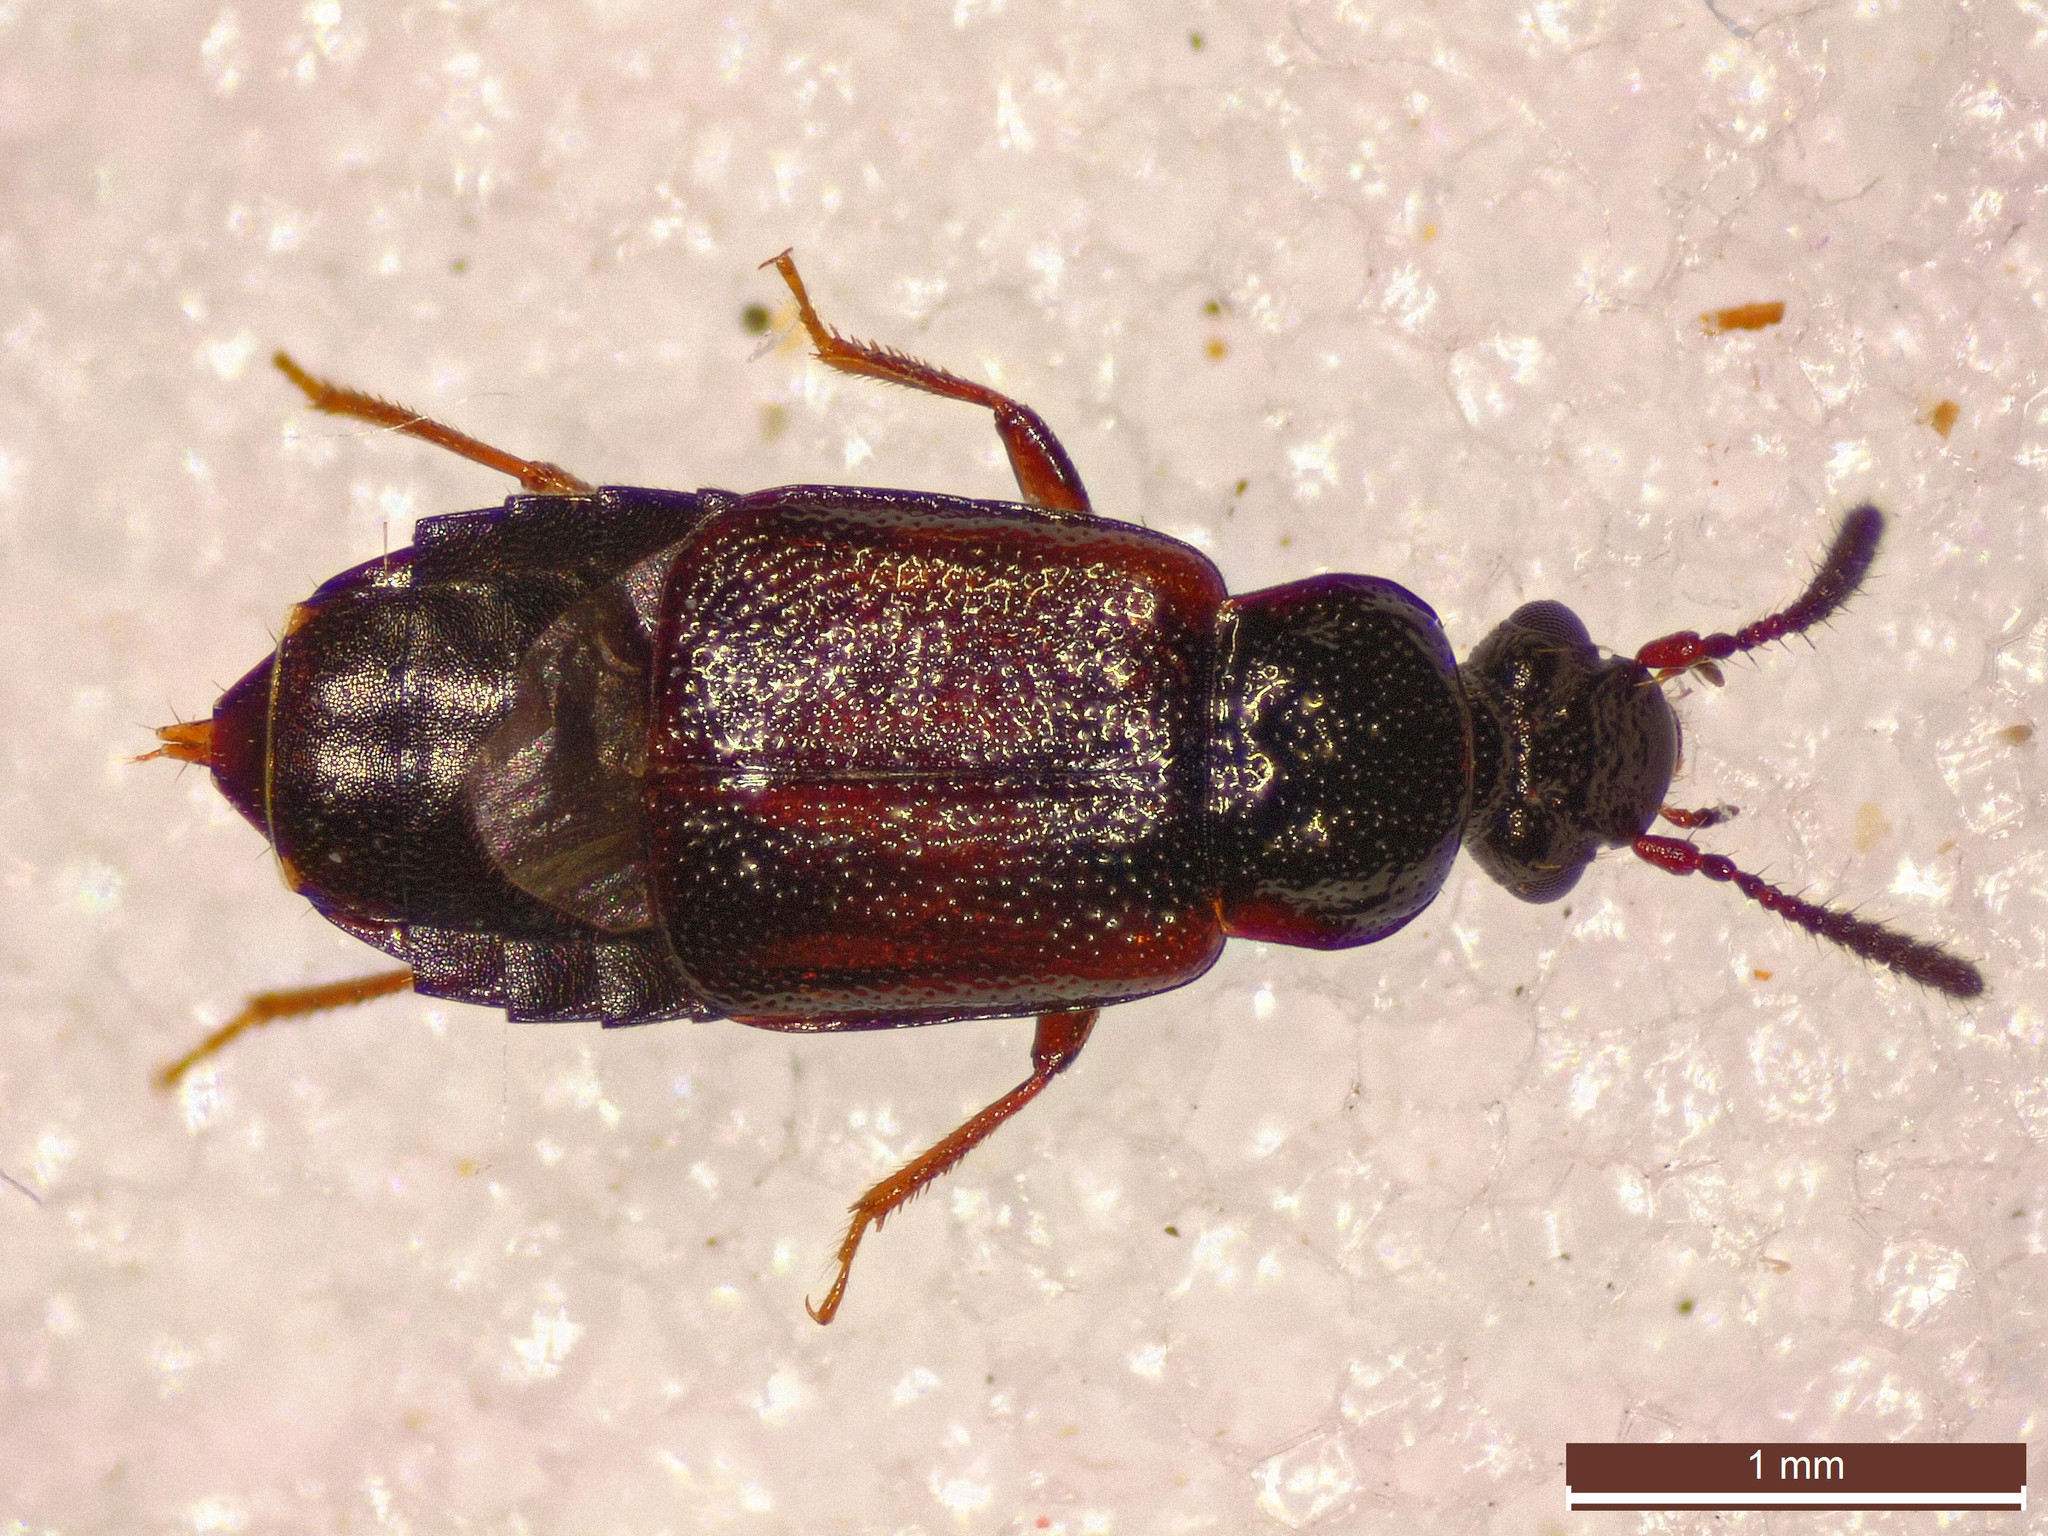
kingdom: Animalia
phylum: Arthropoda
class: Insecta
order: Coleoptera
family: Staphylinidae
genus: Omalium
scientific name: Omalium rivulare
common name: Ocillate rove beetle
